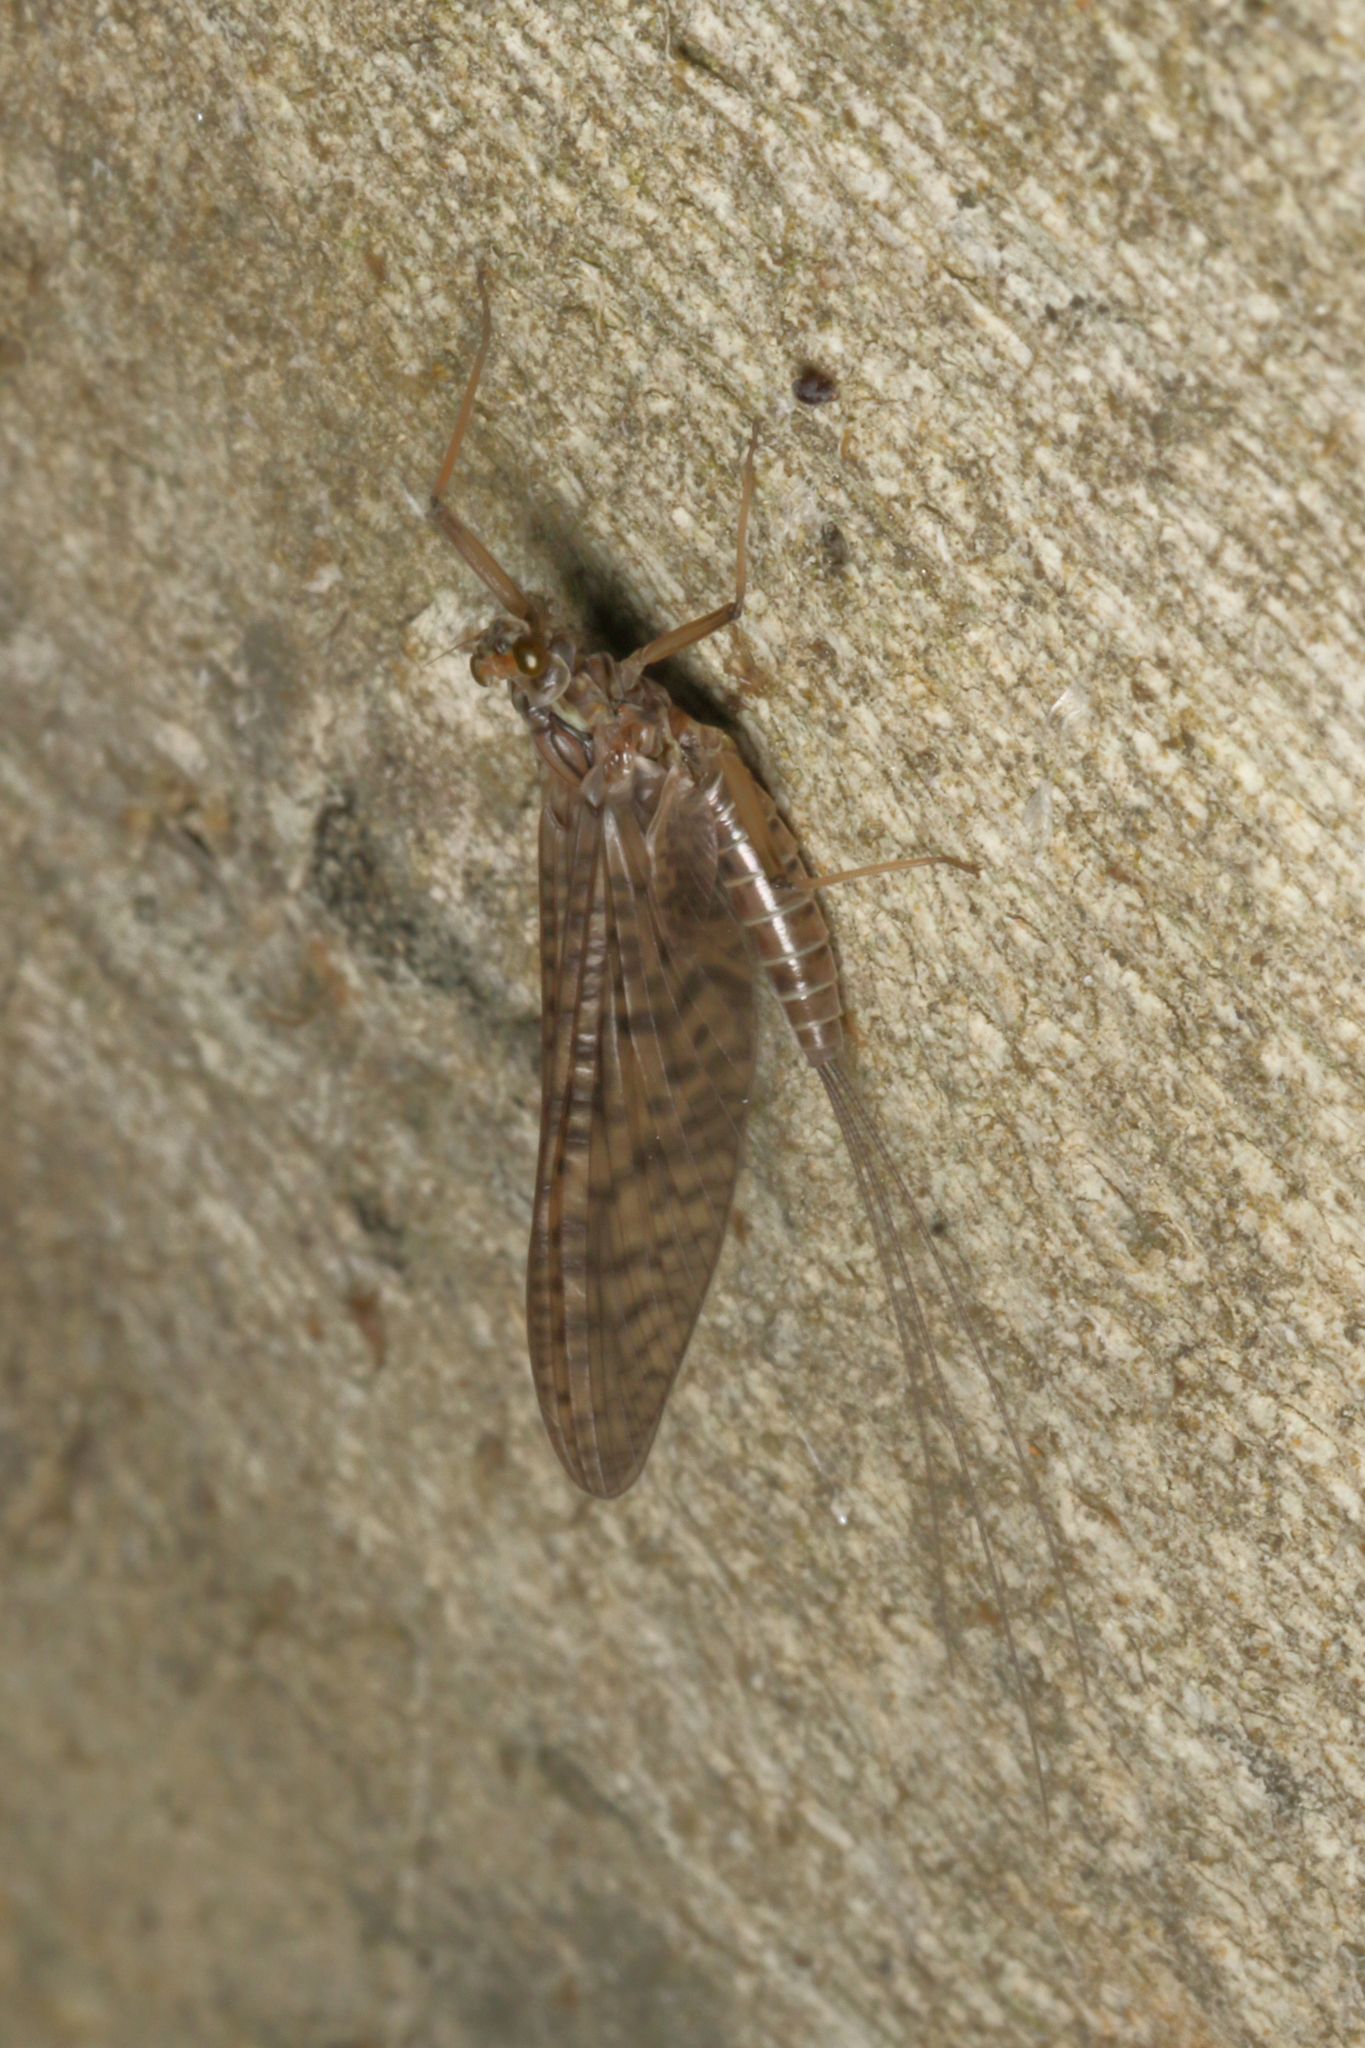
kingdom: Animalia
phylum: Arthropoda
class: Insecta
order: Ephemeroptera
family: Leptophlebiidae
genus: Deleatidium
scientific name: Deleatidium vernale
